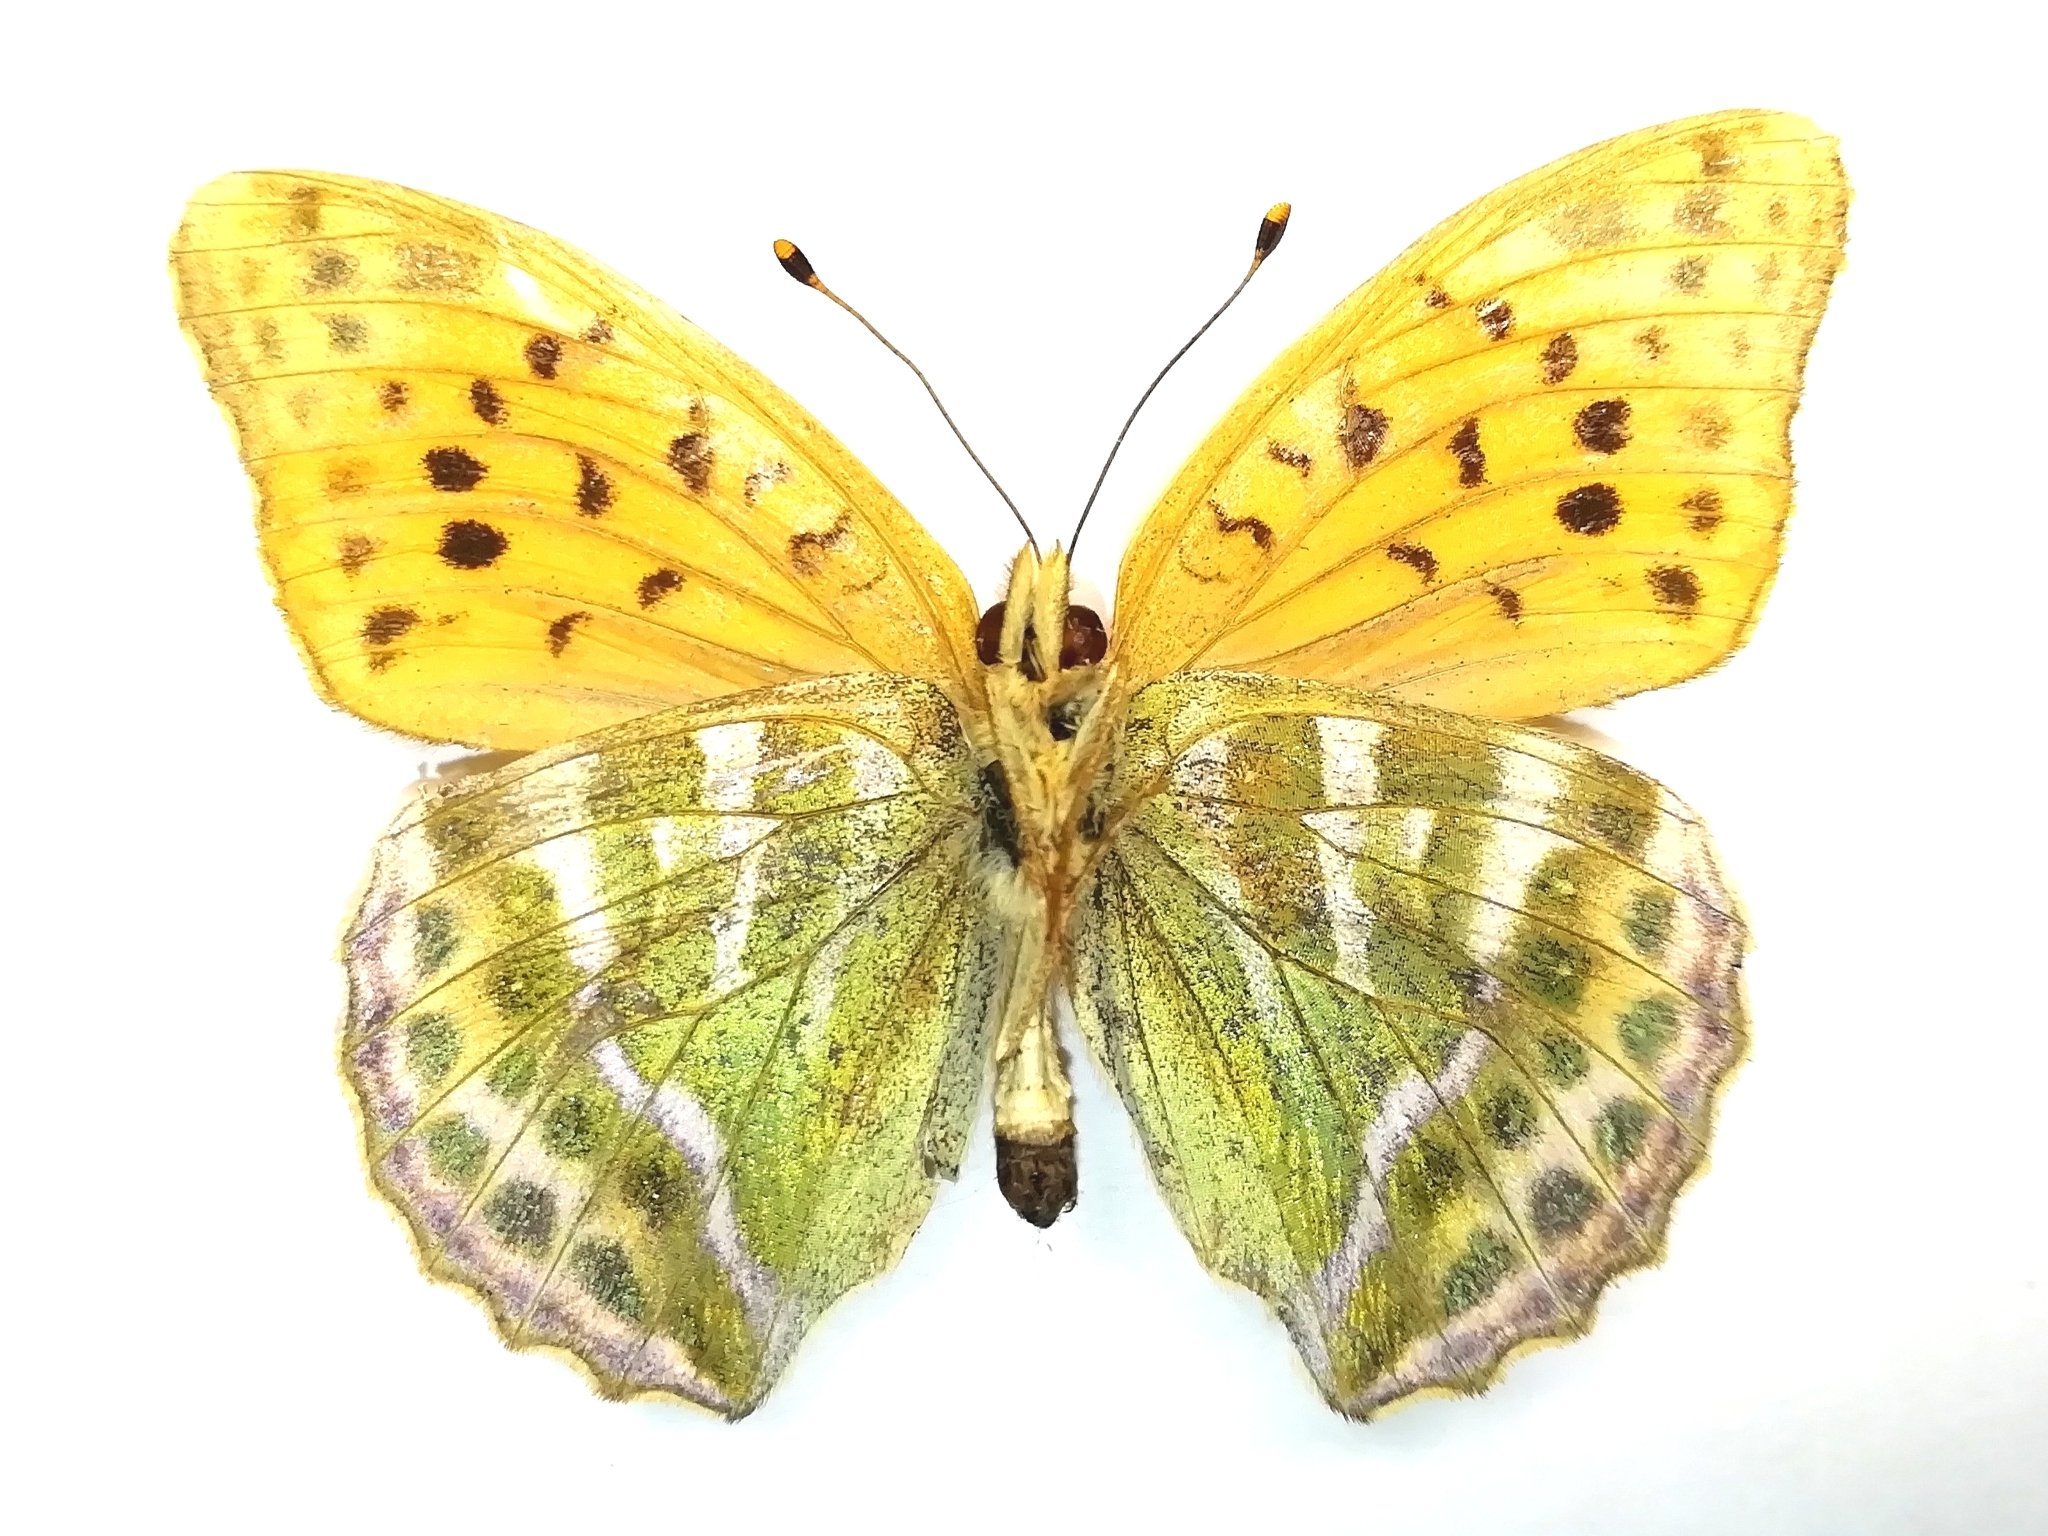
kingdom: Animalia
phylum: Arthropoda
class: Insecta
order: Lepidoptera
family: Nymphalidae
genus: Argynnis
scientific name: Argynnis paphia
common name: Silver-washed fritillary
